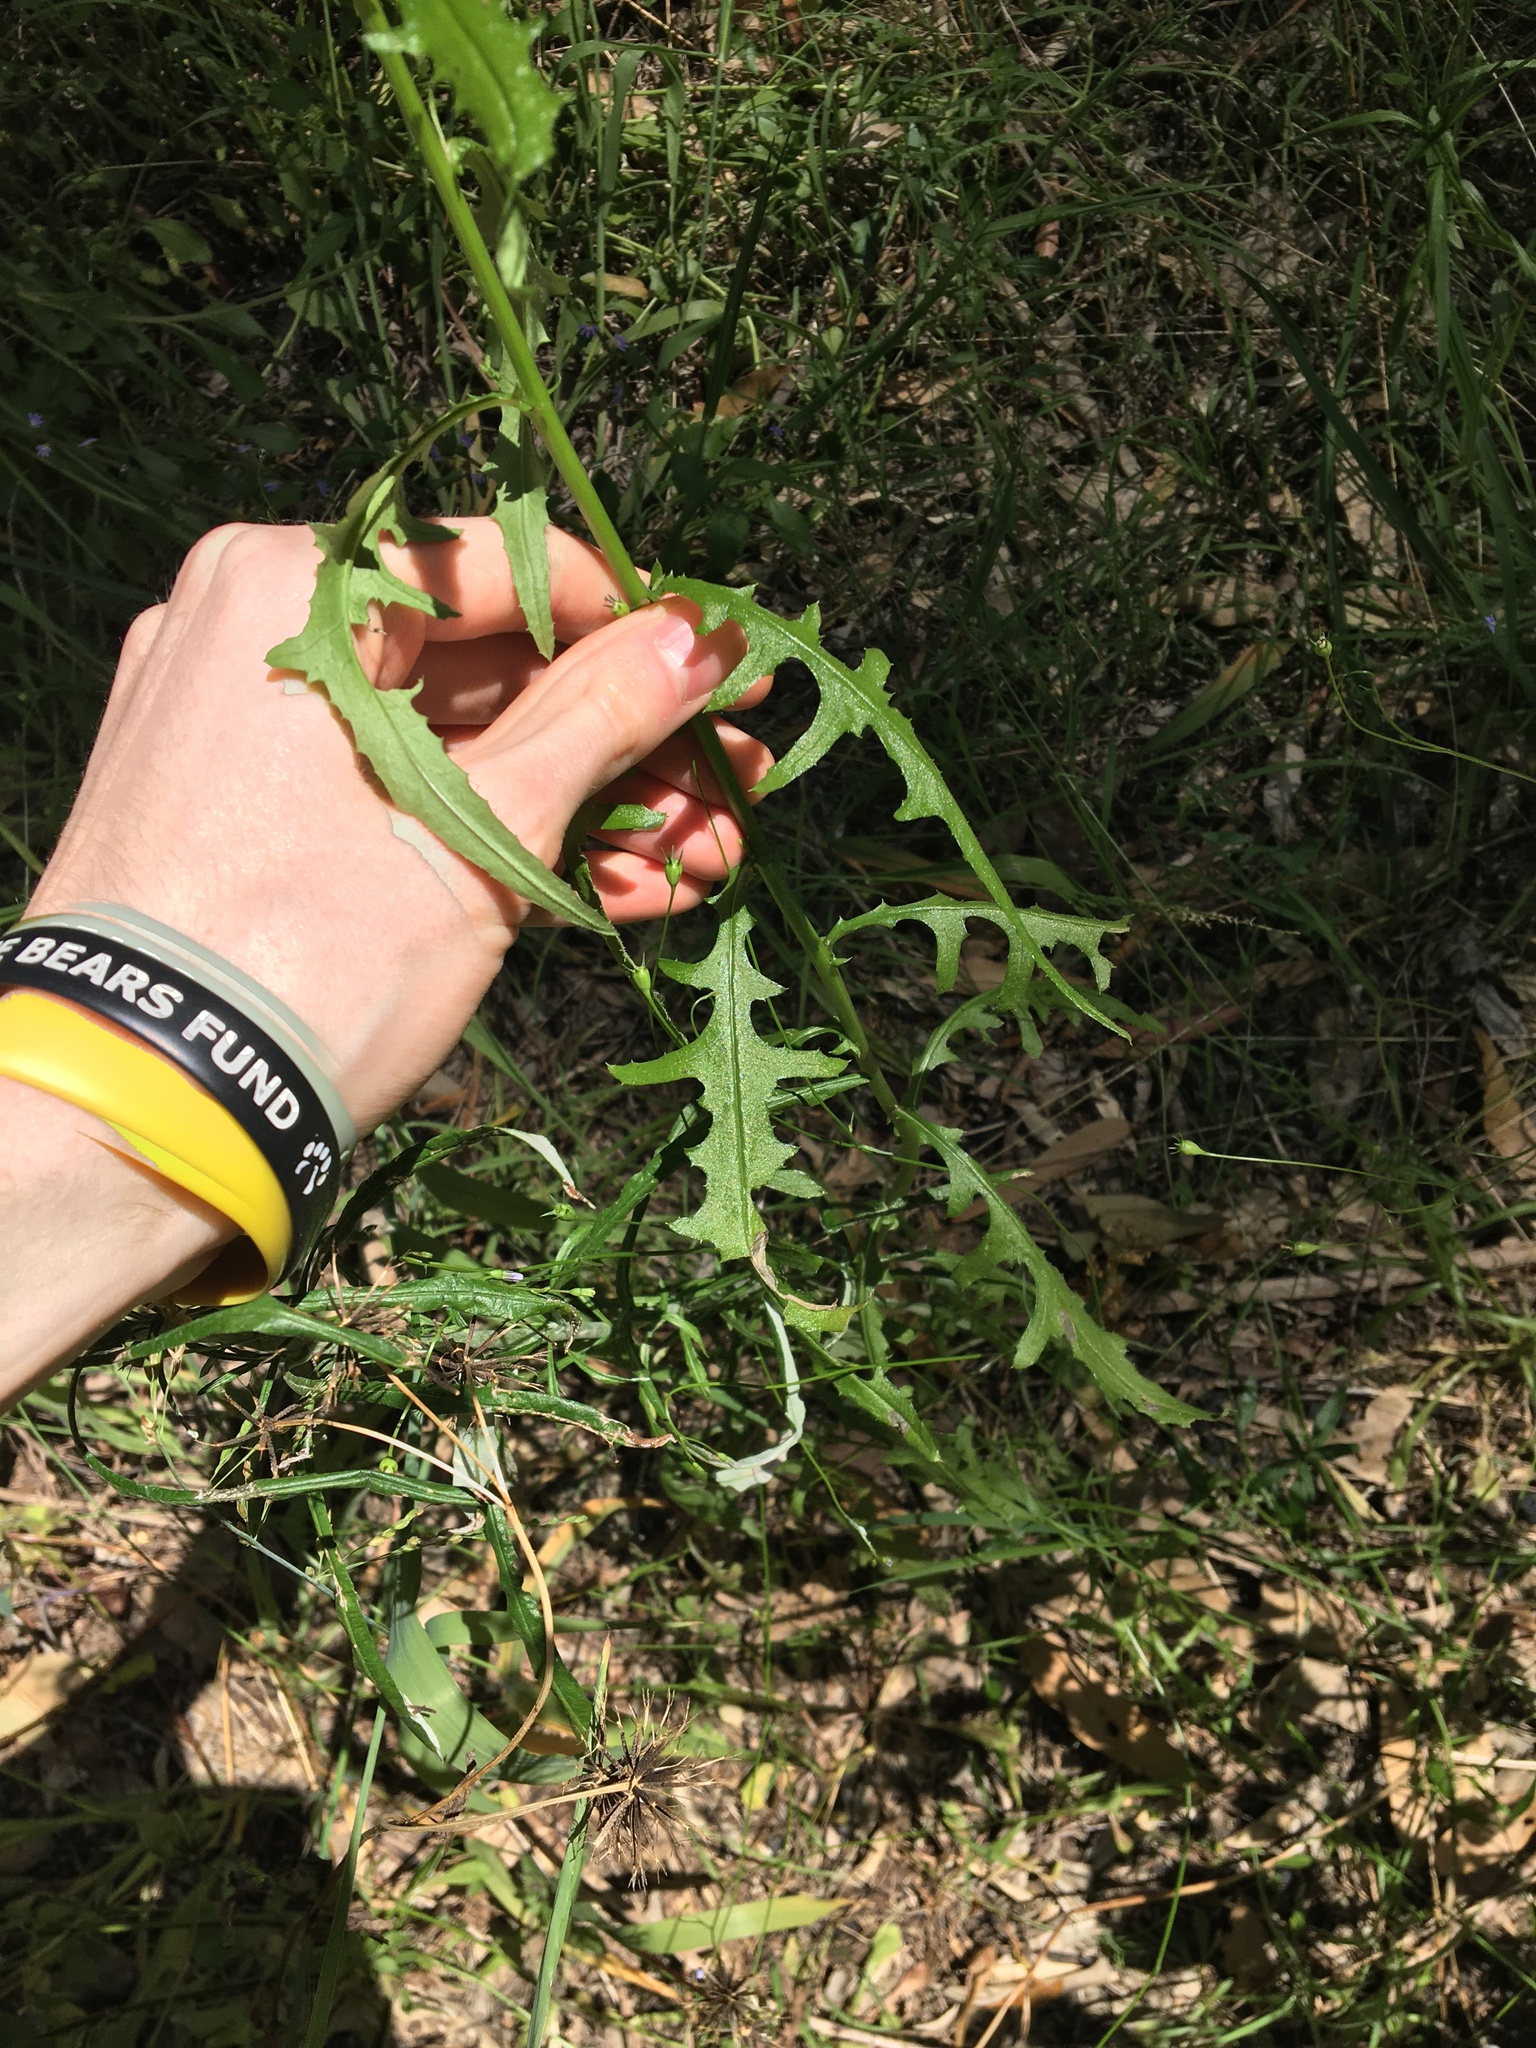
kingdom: Plantae
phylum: Tracheophyta
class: Magnoliopsida
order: Asterales
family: Asteraceae
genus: Senecio
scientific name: Senecio hispidulus
